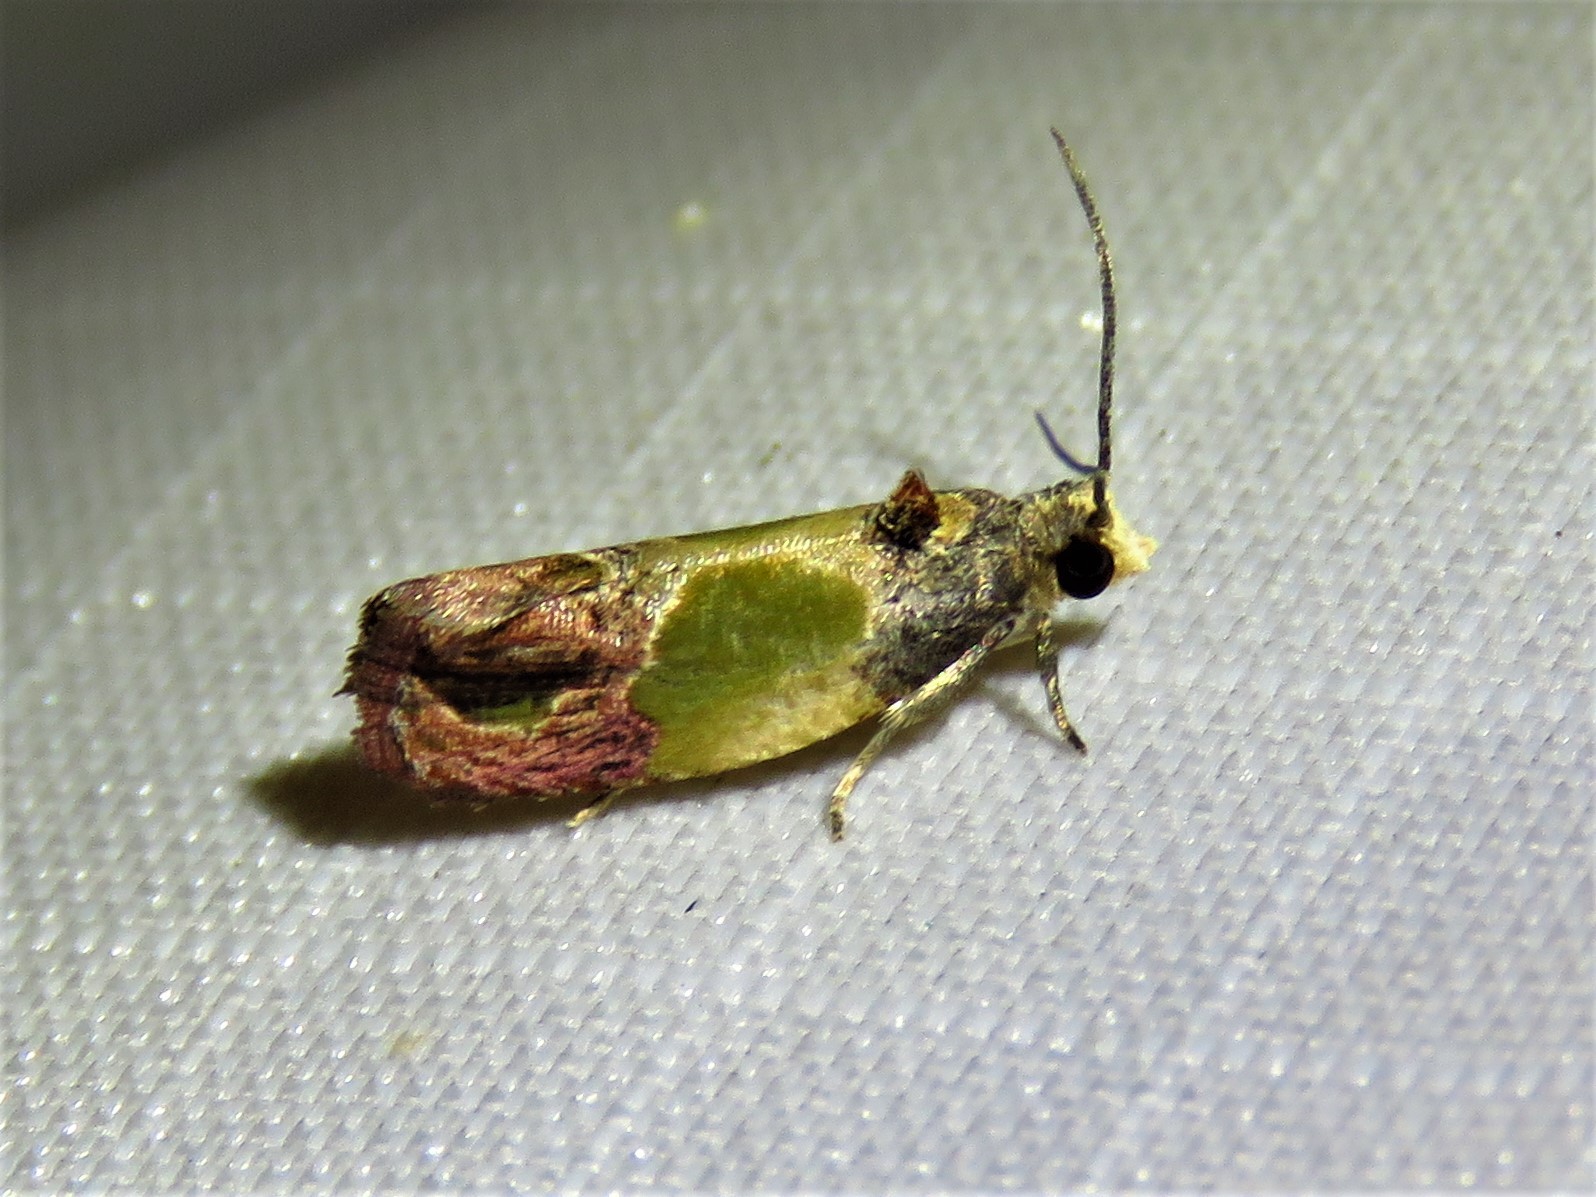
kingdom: Animalia
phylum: Arthropoda
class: Insecta
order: Lepidoptera
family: Tortricidae
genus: Eumarozia
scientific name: Eumarozia malachitana
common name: Sculptured moth
